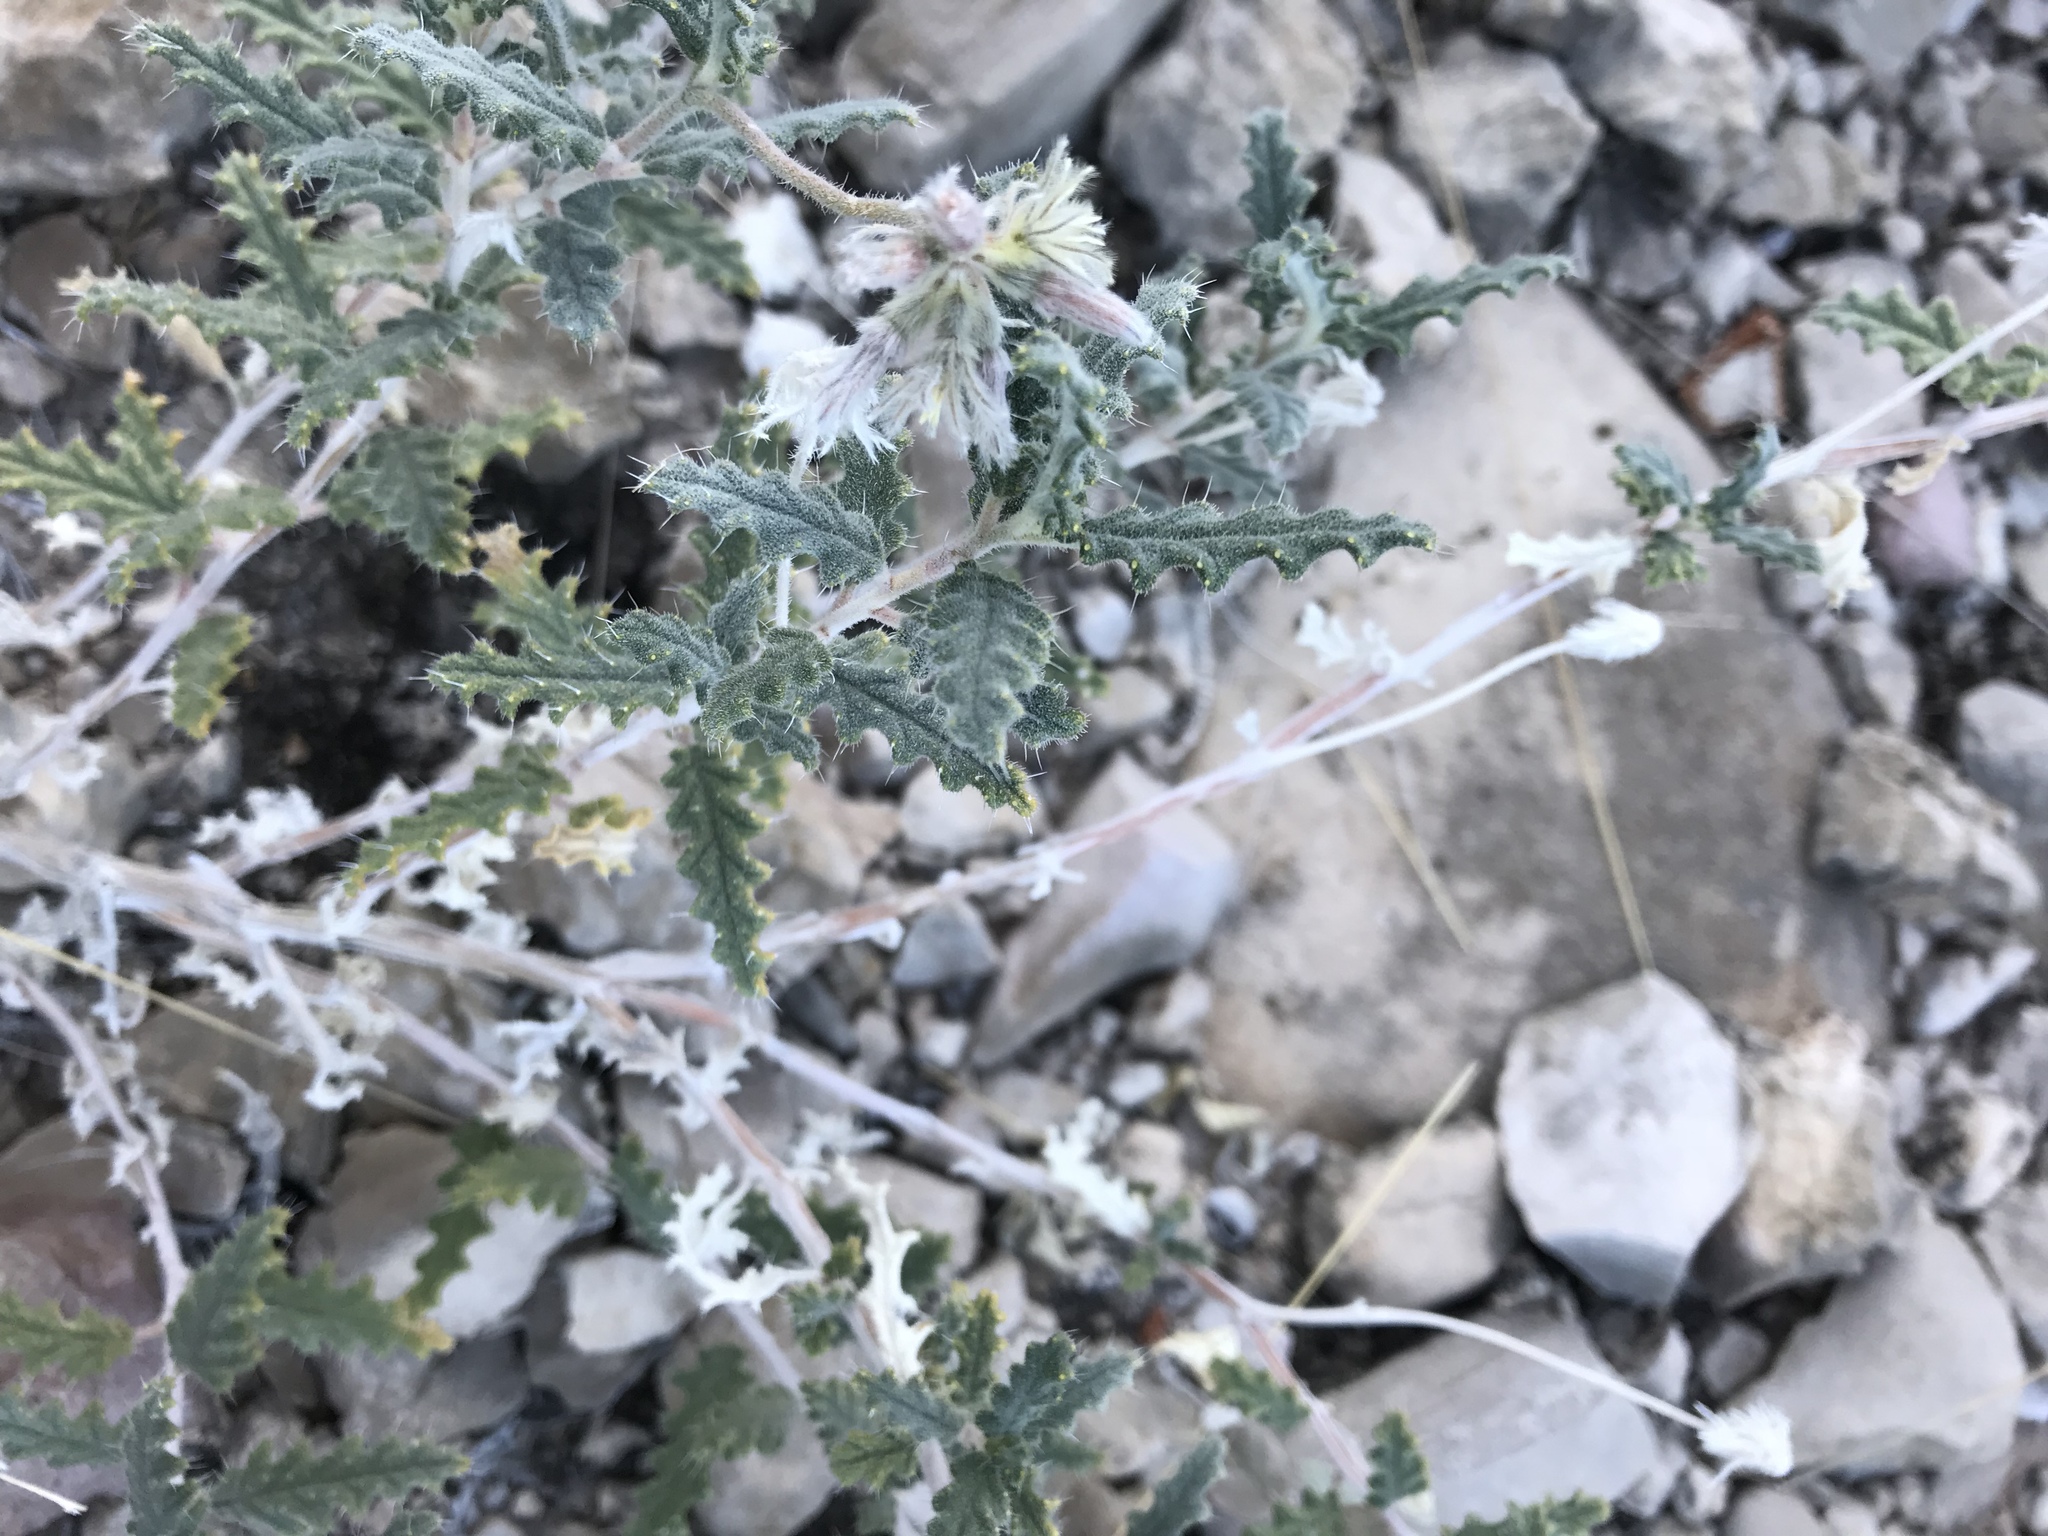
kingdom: Plantae
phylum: Tracheophyta
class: Magnoliopsida
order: Cornales
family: Loasaceae
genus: Cevallia
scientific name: Cevallia sinuata
